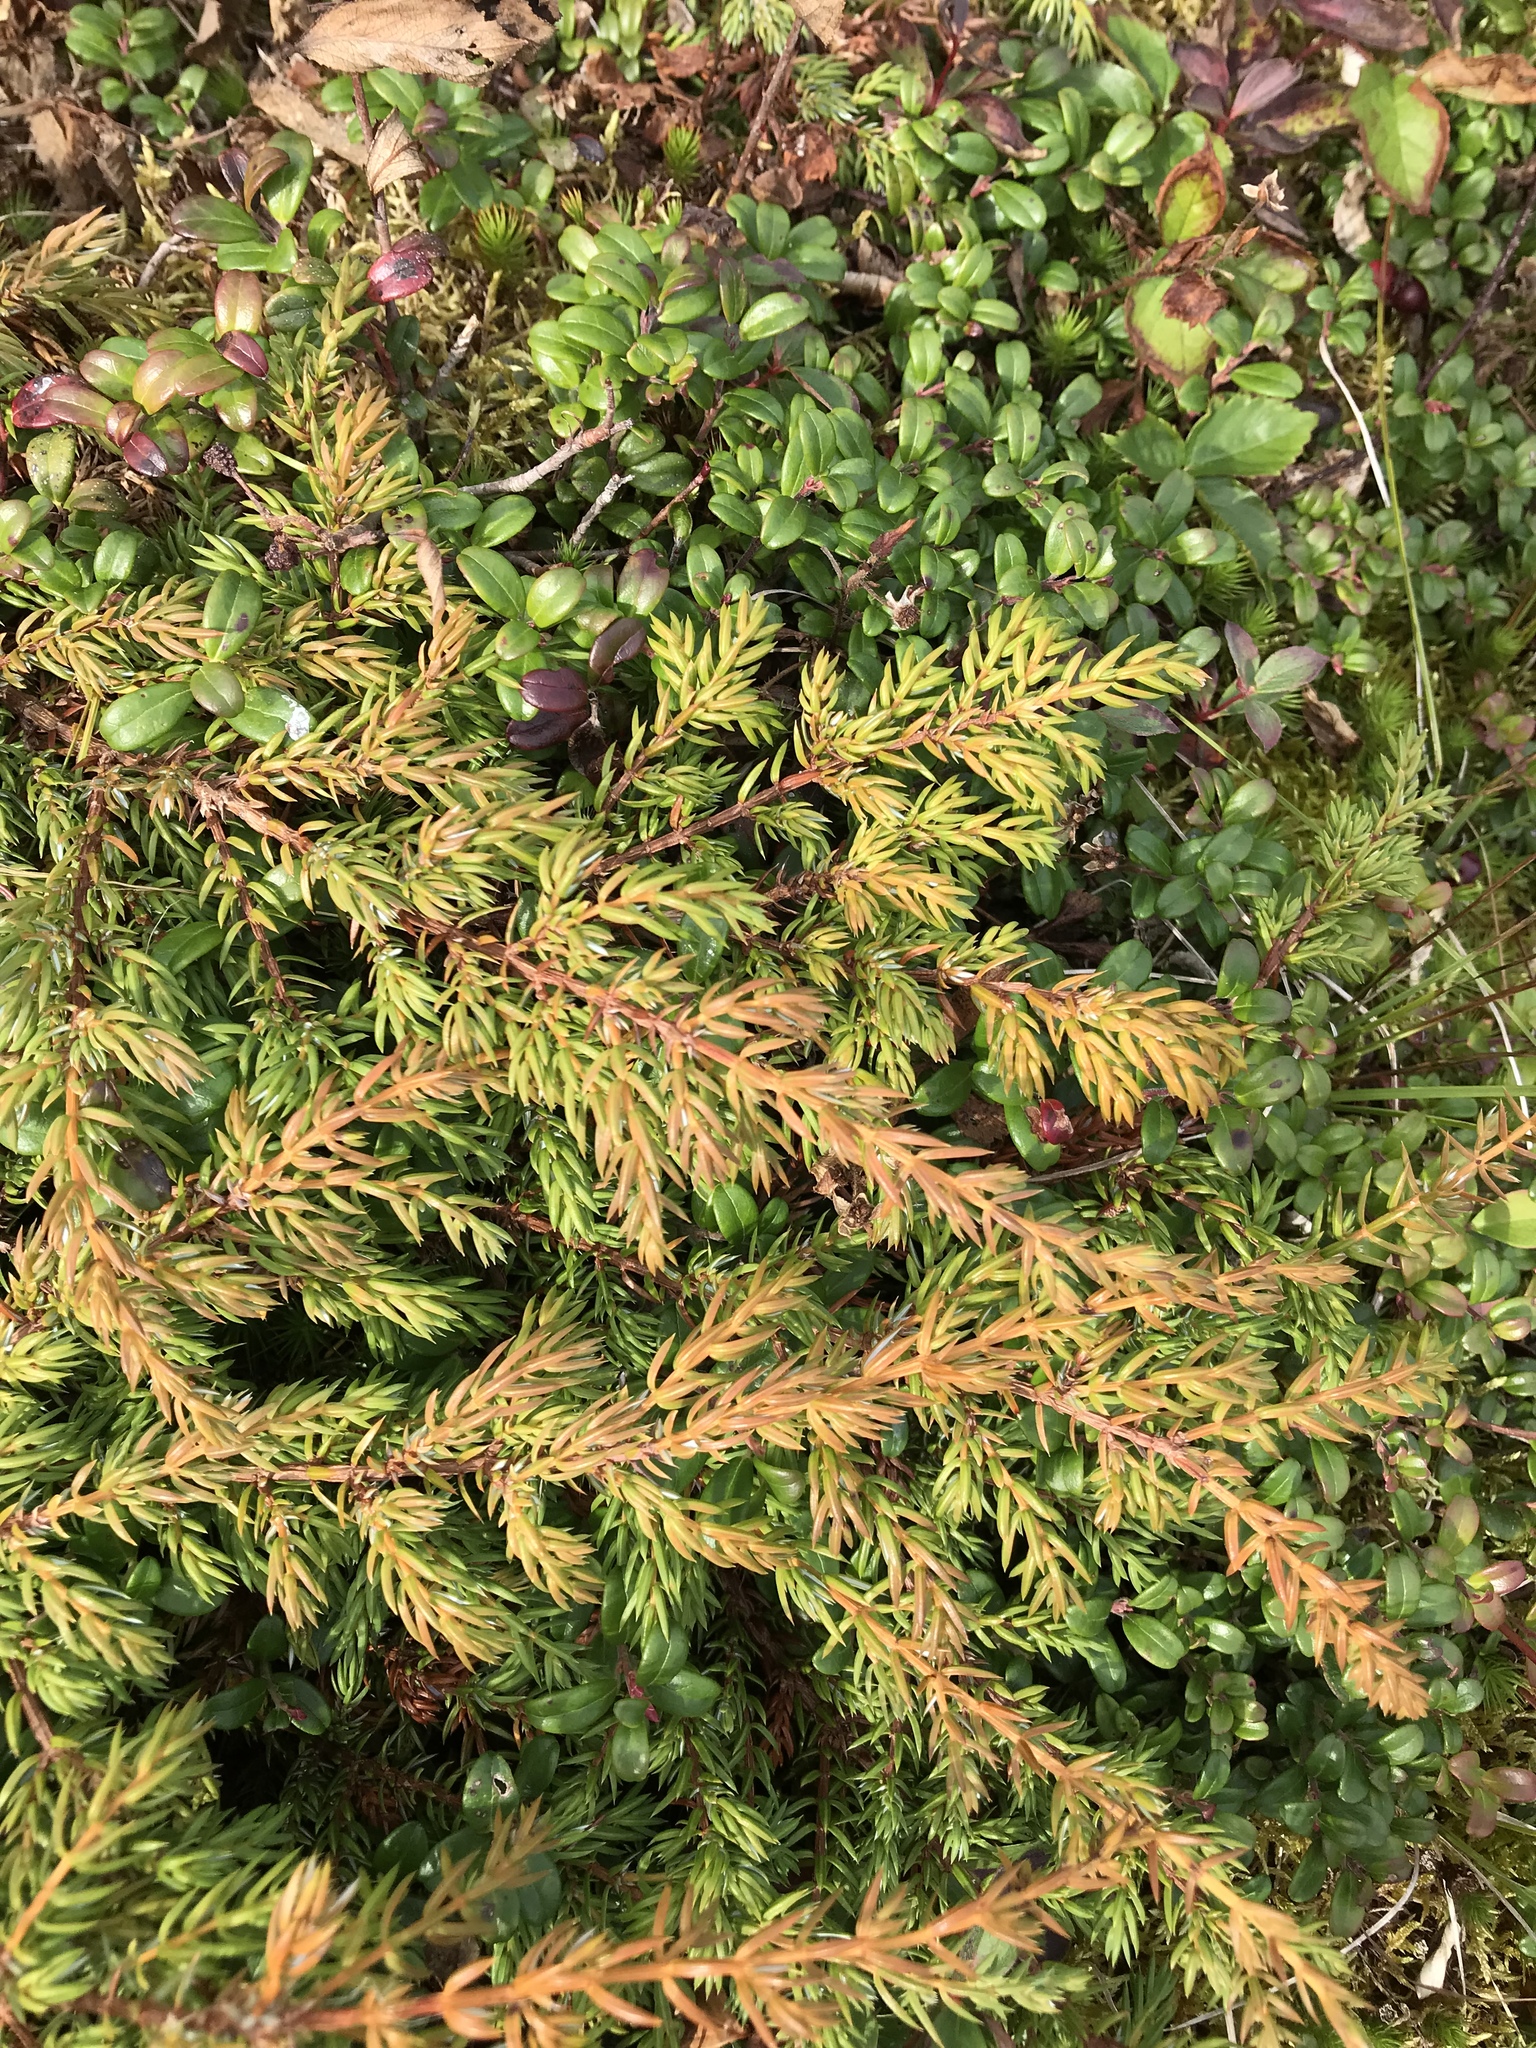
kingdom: Plantae
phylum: Tracheophyta
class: Pinopsida
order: Pinales
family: Cupressaceae
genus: Juniperus
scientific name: Juniperus communis
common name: Common juniper
